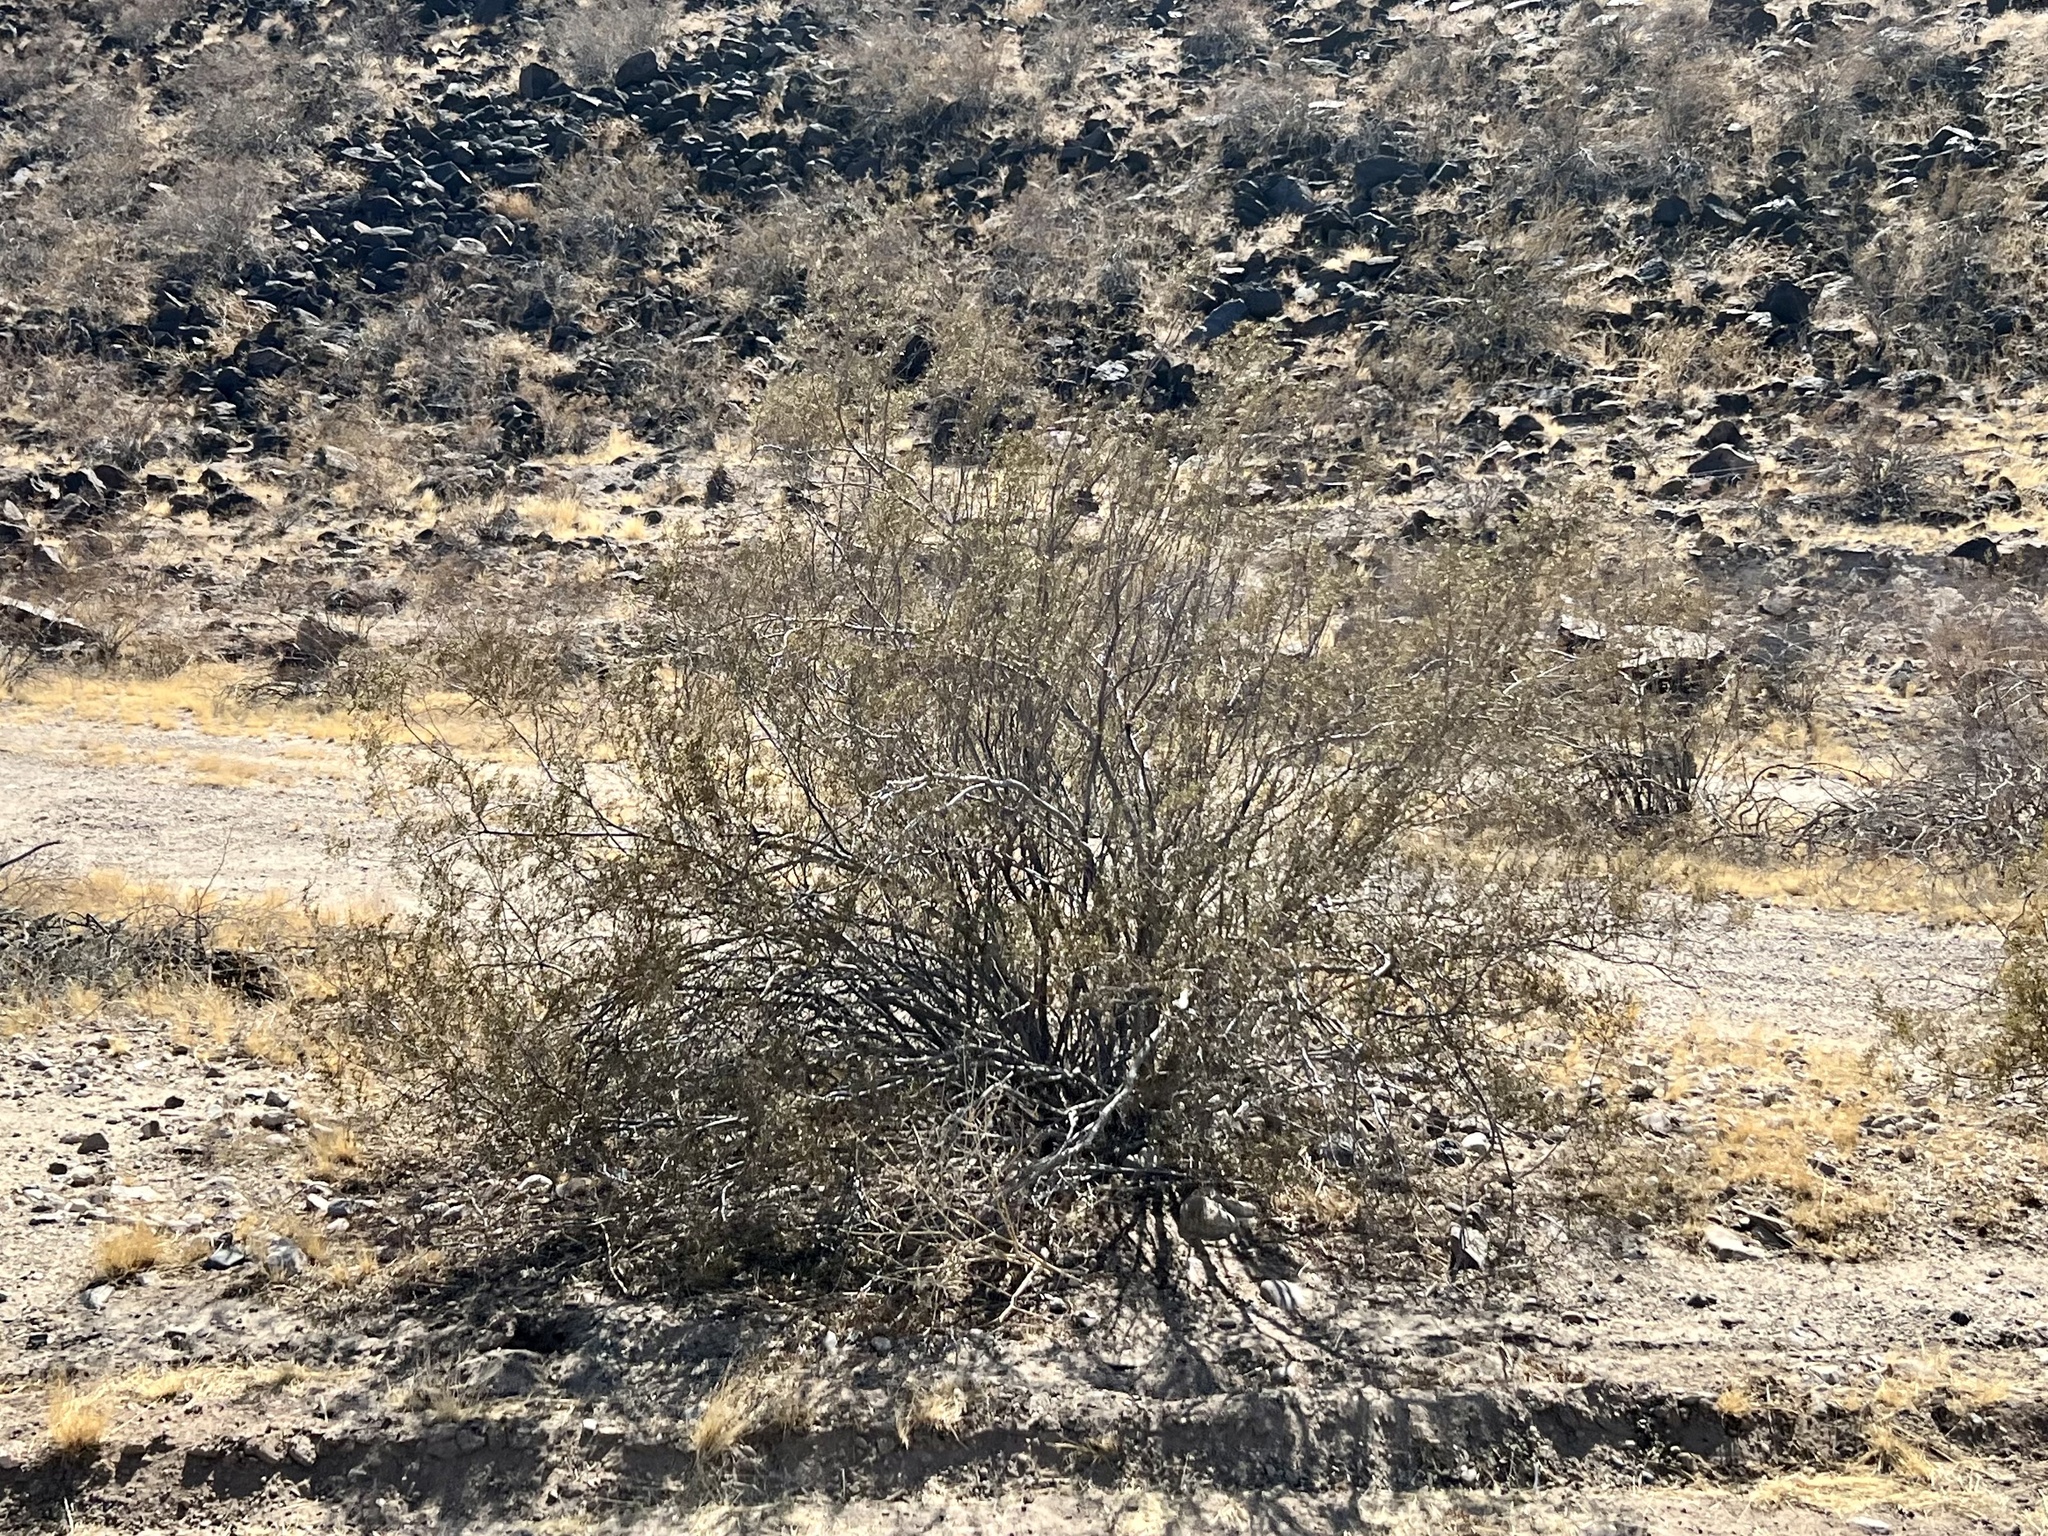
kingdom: Plantae
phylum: Tracheophyta
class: Magnoliopsida
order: Zygophyllales
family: Zygophyllaceae
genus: Larrea
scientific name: Larrea tridentata
